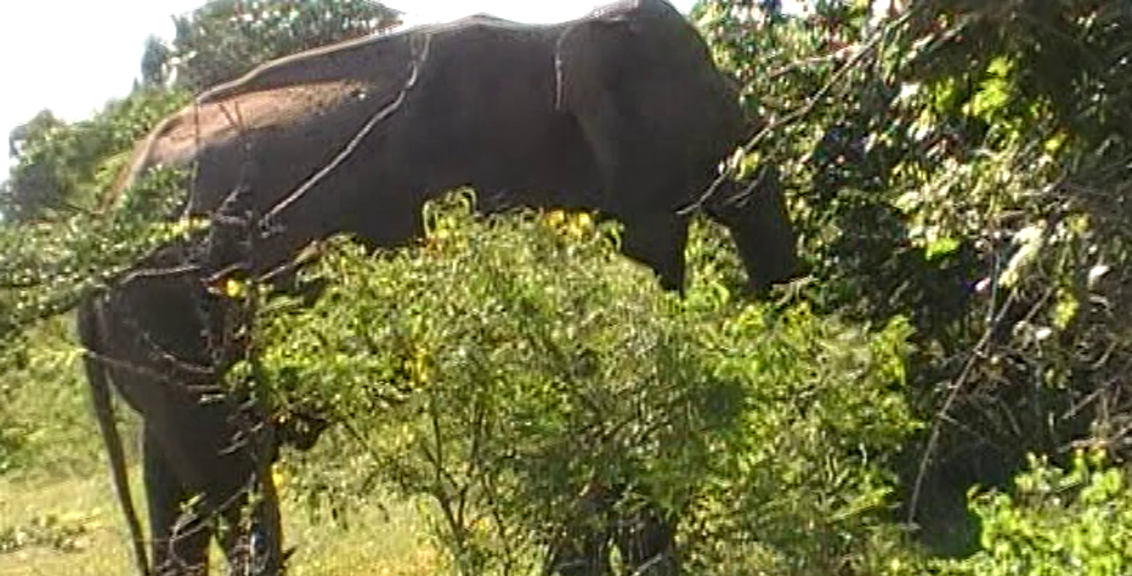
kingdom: Animalia
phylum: Chordata
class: Mammalia
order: Proboscidea
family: Elephantidae
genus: Elephas
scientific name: Elephas maximus
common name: Asian elephant
